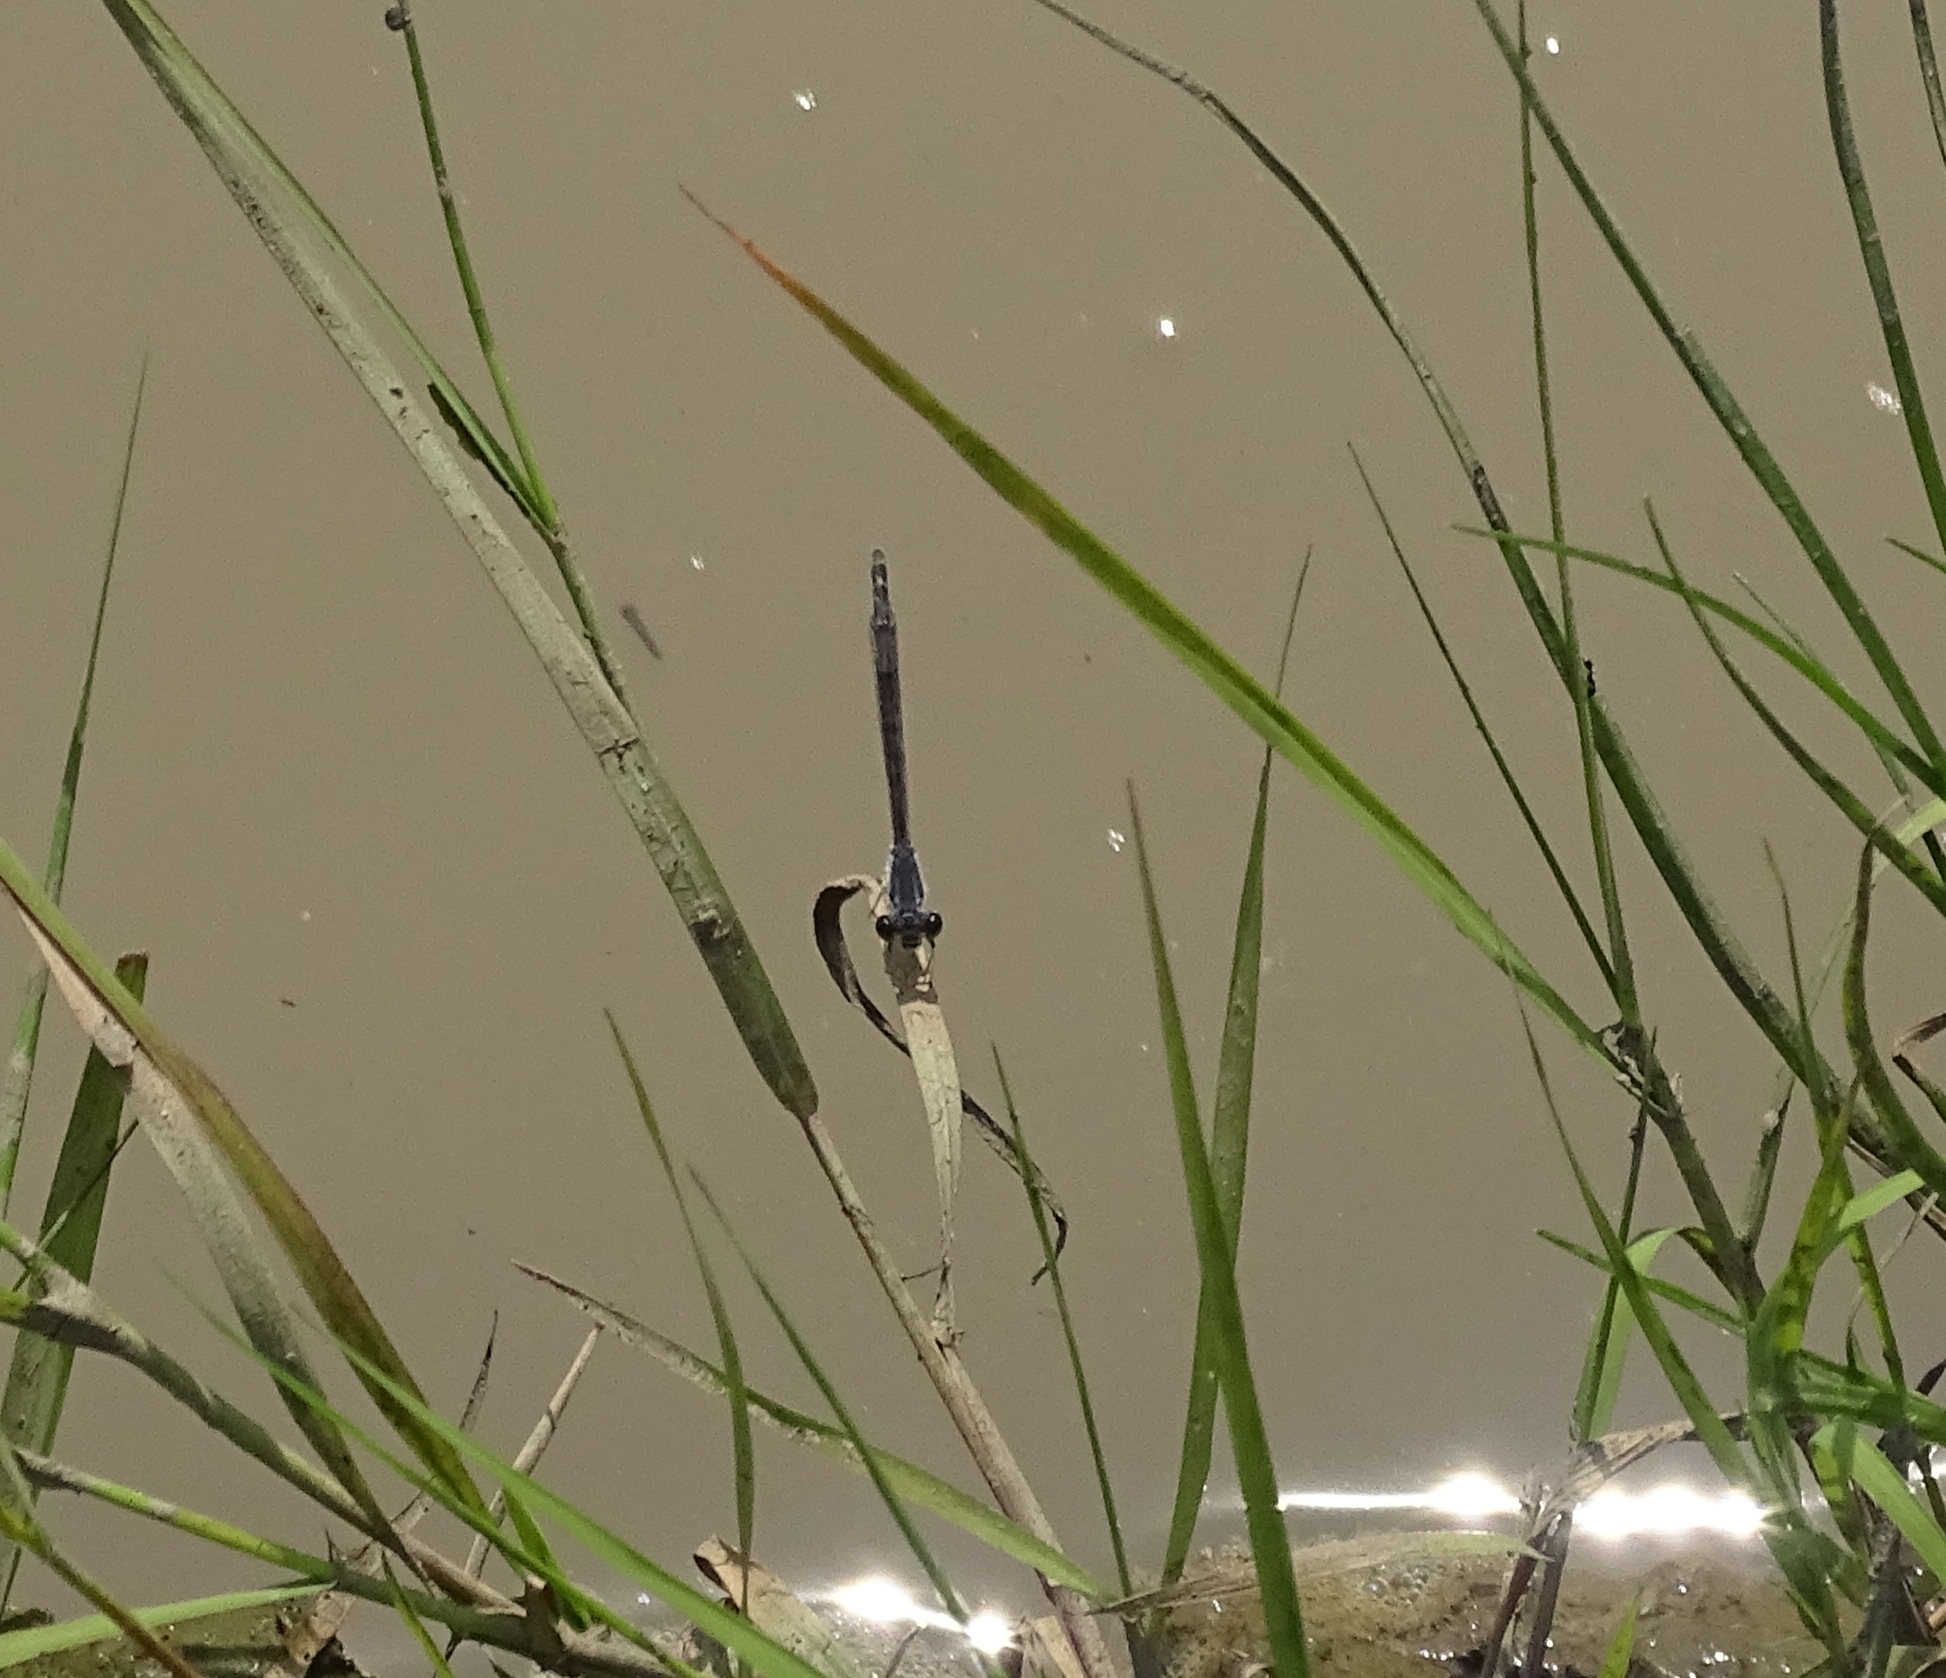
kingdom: Animalia
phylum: Arthropoda
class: Insecta
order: Odonata
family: Coenagrionidae
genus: Ischnura
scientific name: Ischnura posita
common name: Fragile forktail
